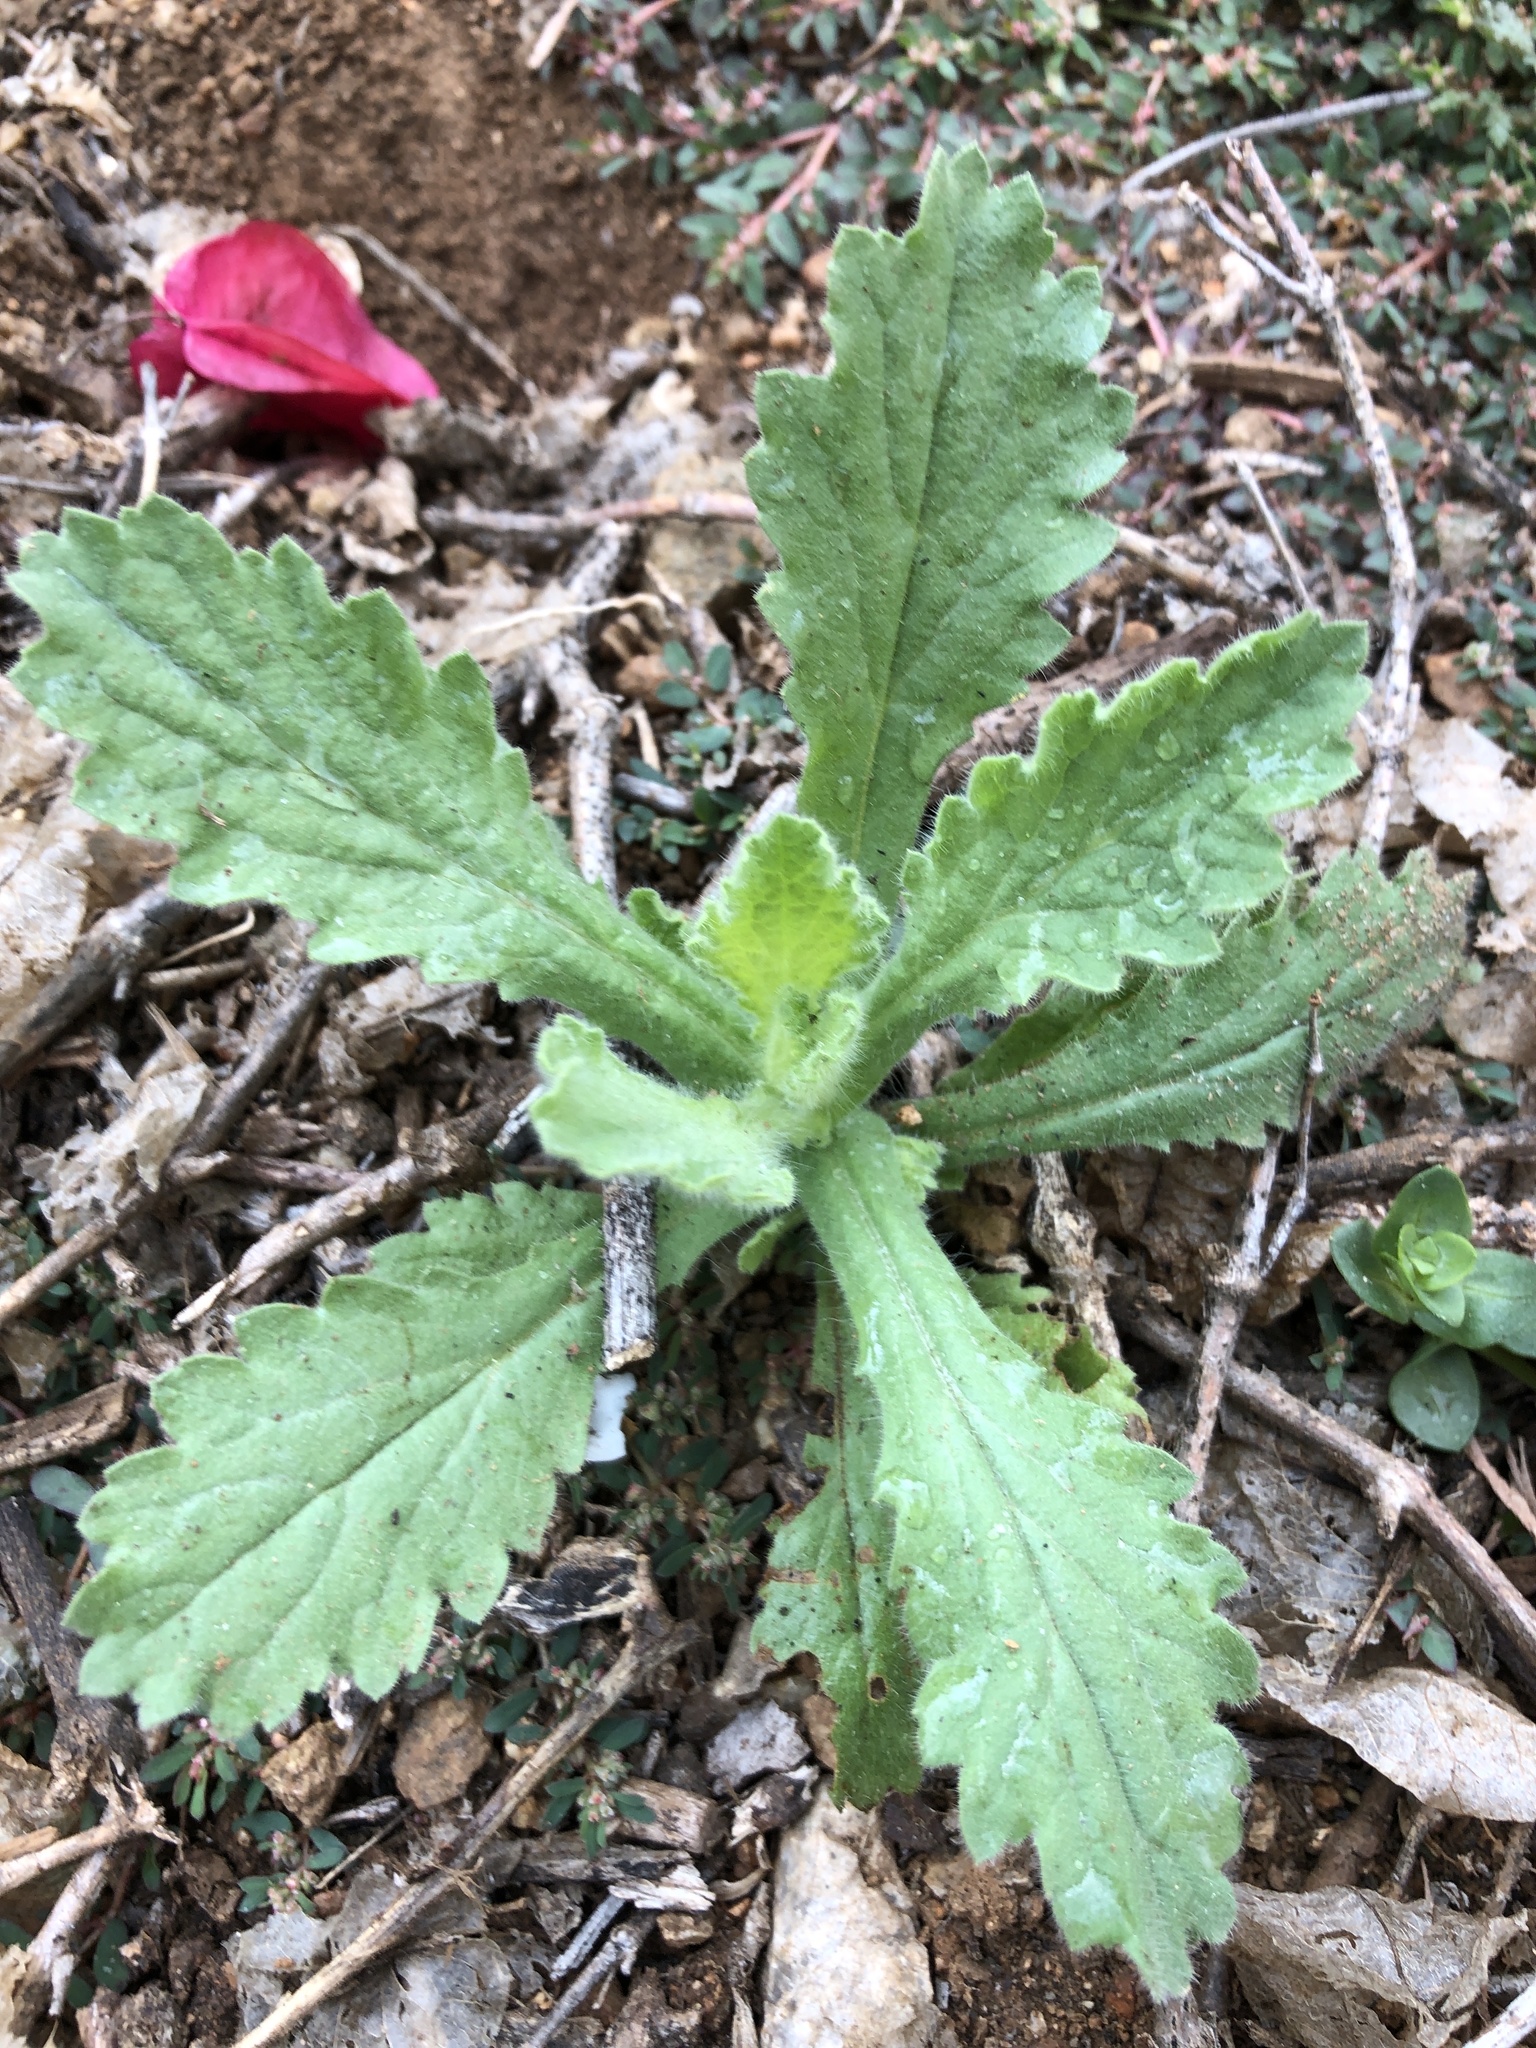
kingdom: Plantae
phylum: Tracheophyta
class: Magnoliopsida
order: Asterales
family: Asteraceae
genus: Laennecia
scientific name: Laennecia coulteri
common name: Coulter's woolwort
